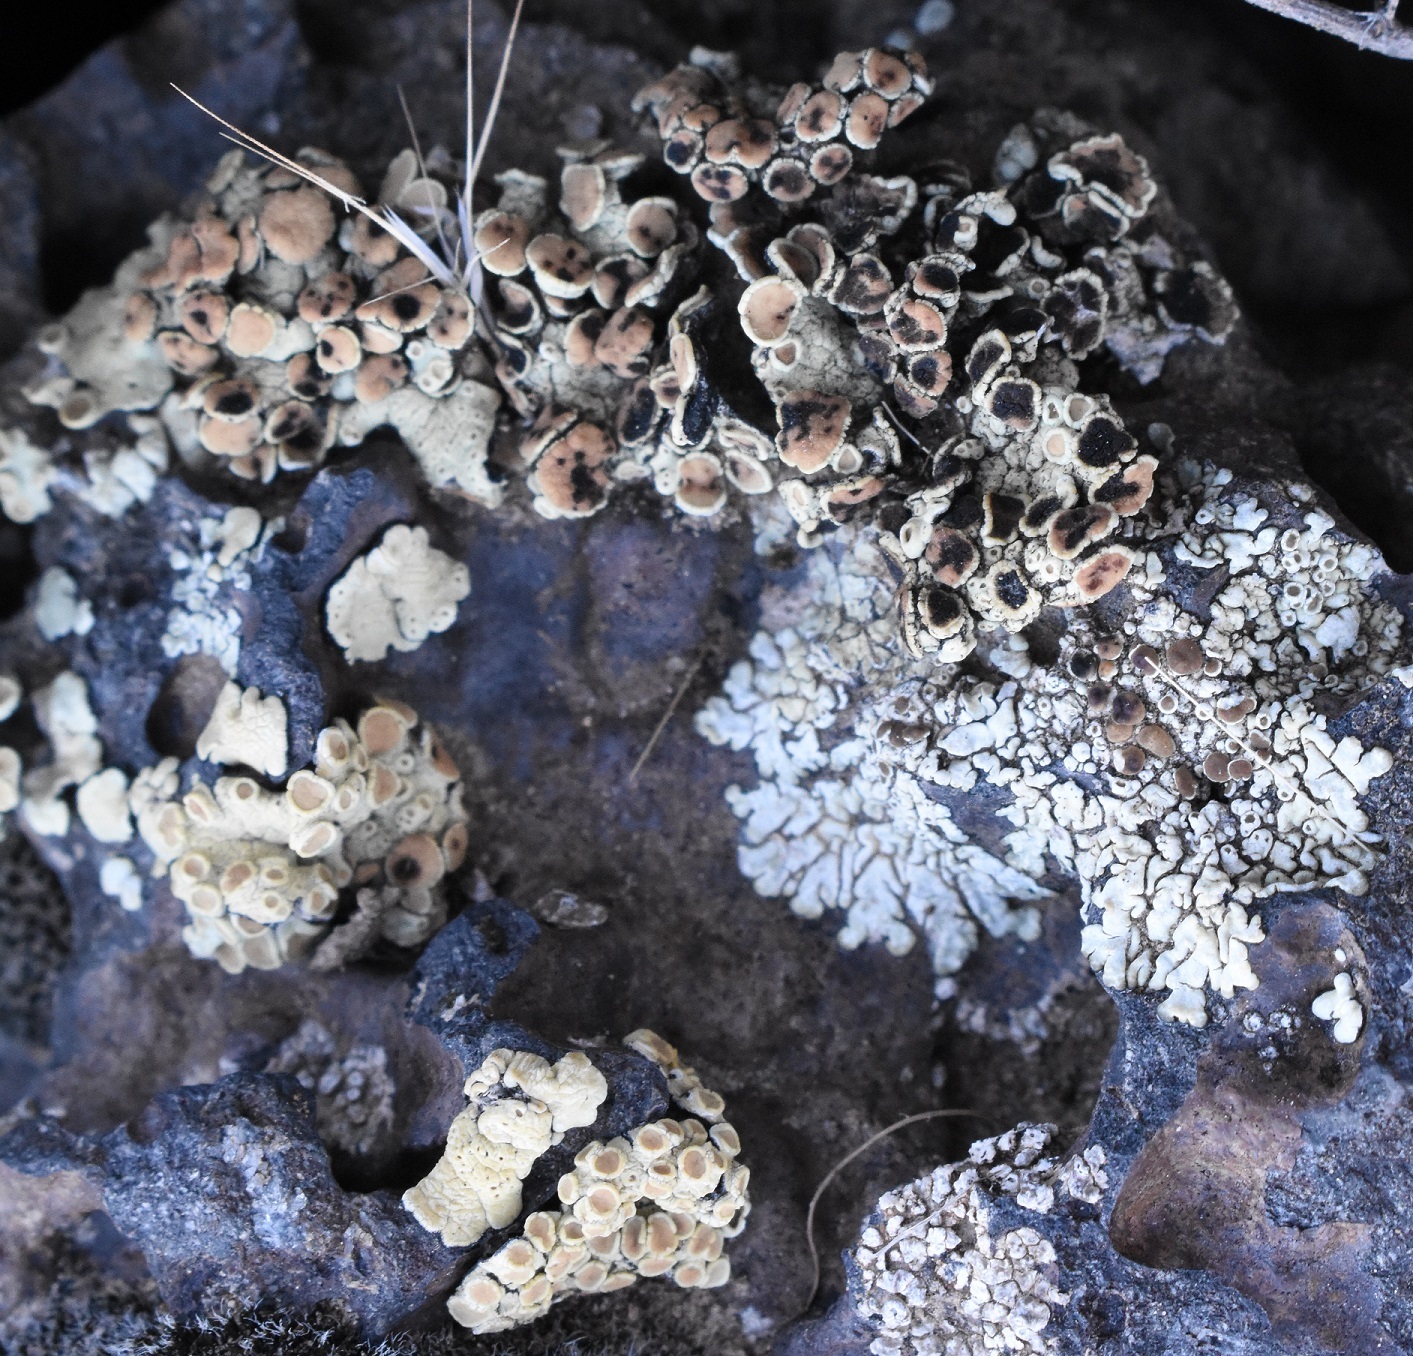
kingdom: Fungi
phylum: Ascomycota
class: Lecanoromycetes
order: Lecanorales
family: Lecanoraceae
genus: Protoparmeliopsis
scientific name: Protoparmeliopsis peltata
